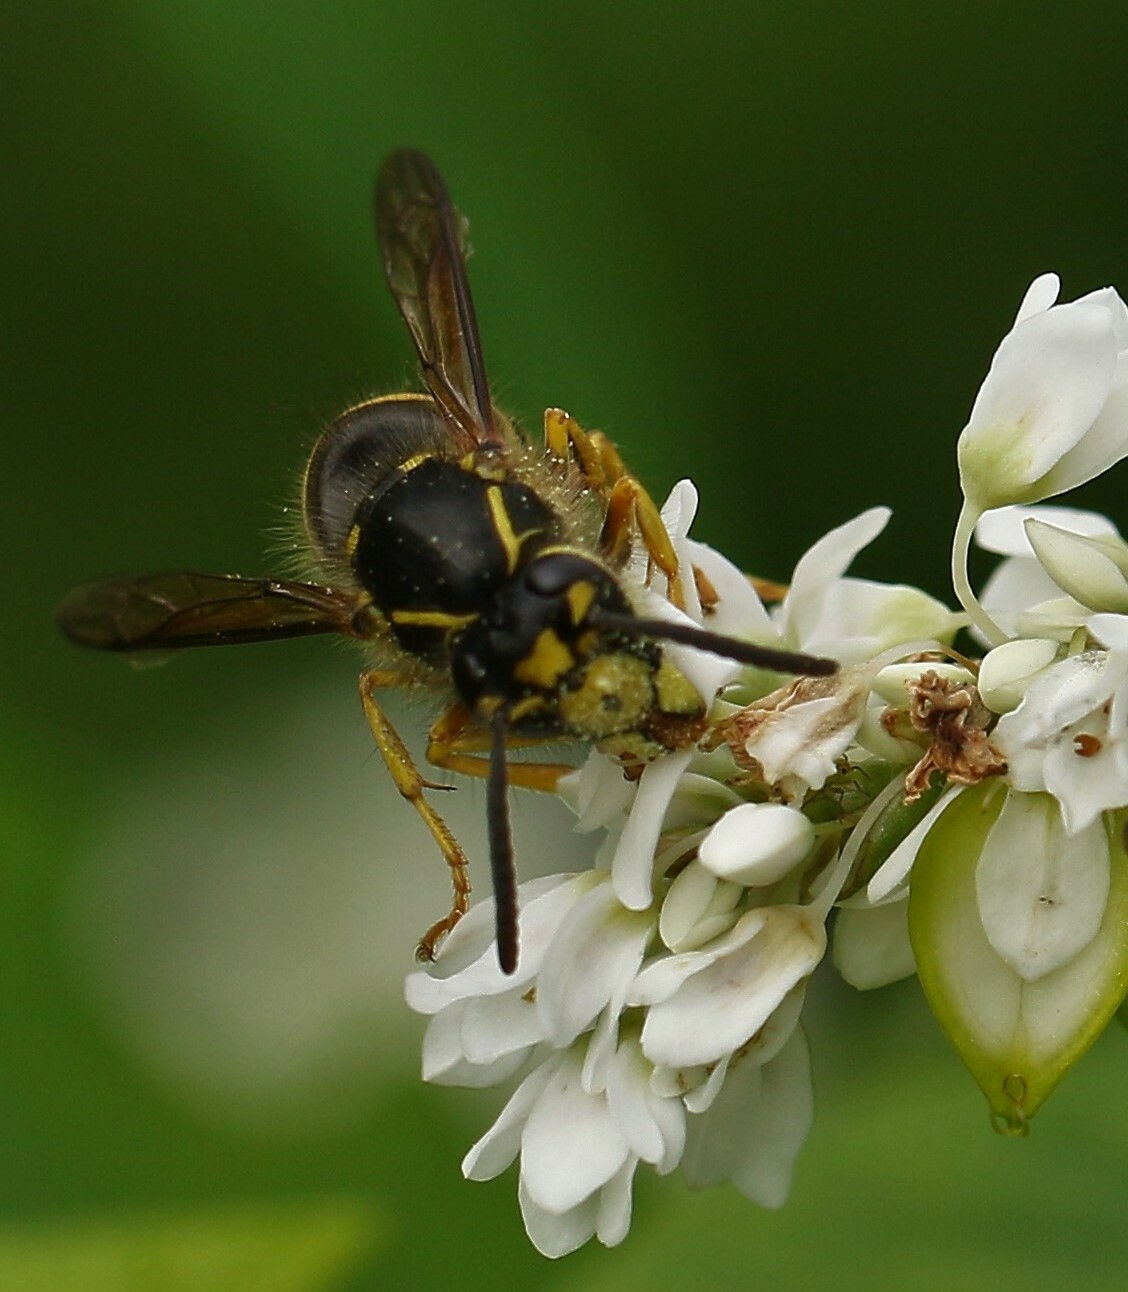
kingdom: Animalia
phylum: Arthropoda
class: Insecta
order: Hymenoptera
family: Vespidae
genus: Dolichovespula
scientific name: Dolichovespula arenaria
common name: Aerial yellowjacket
